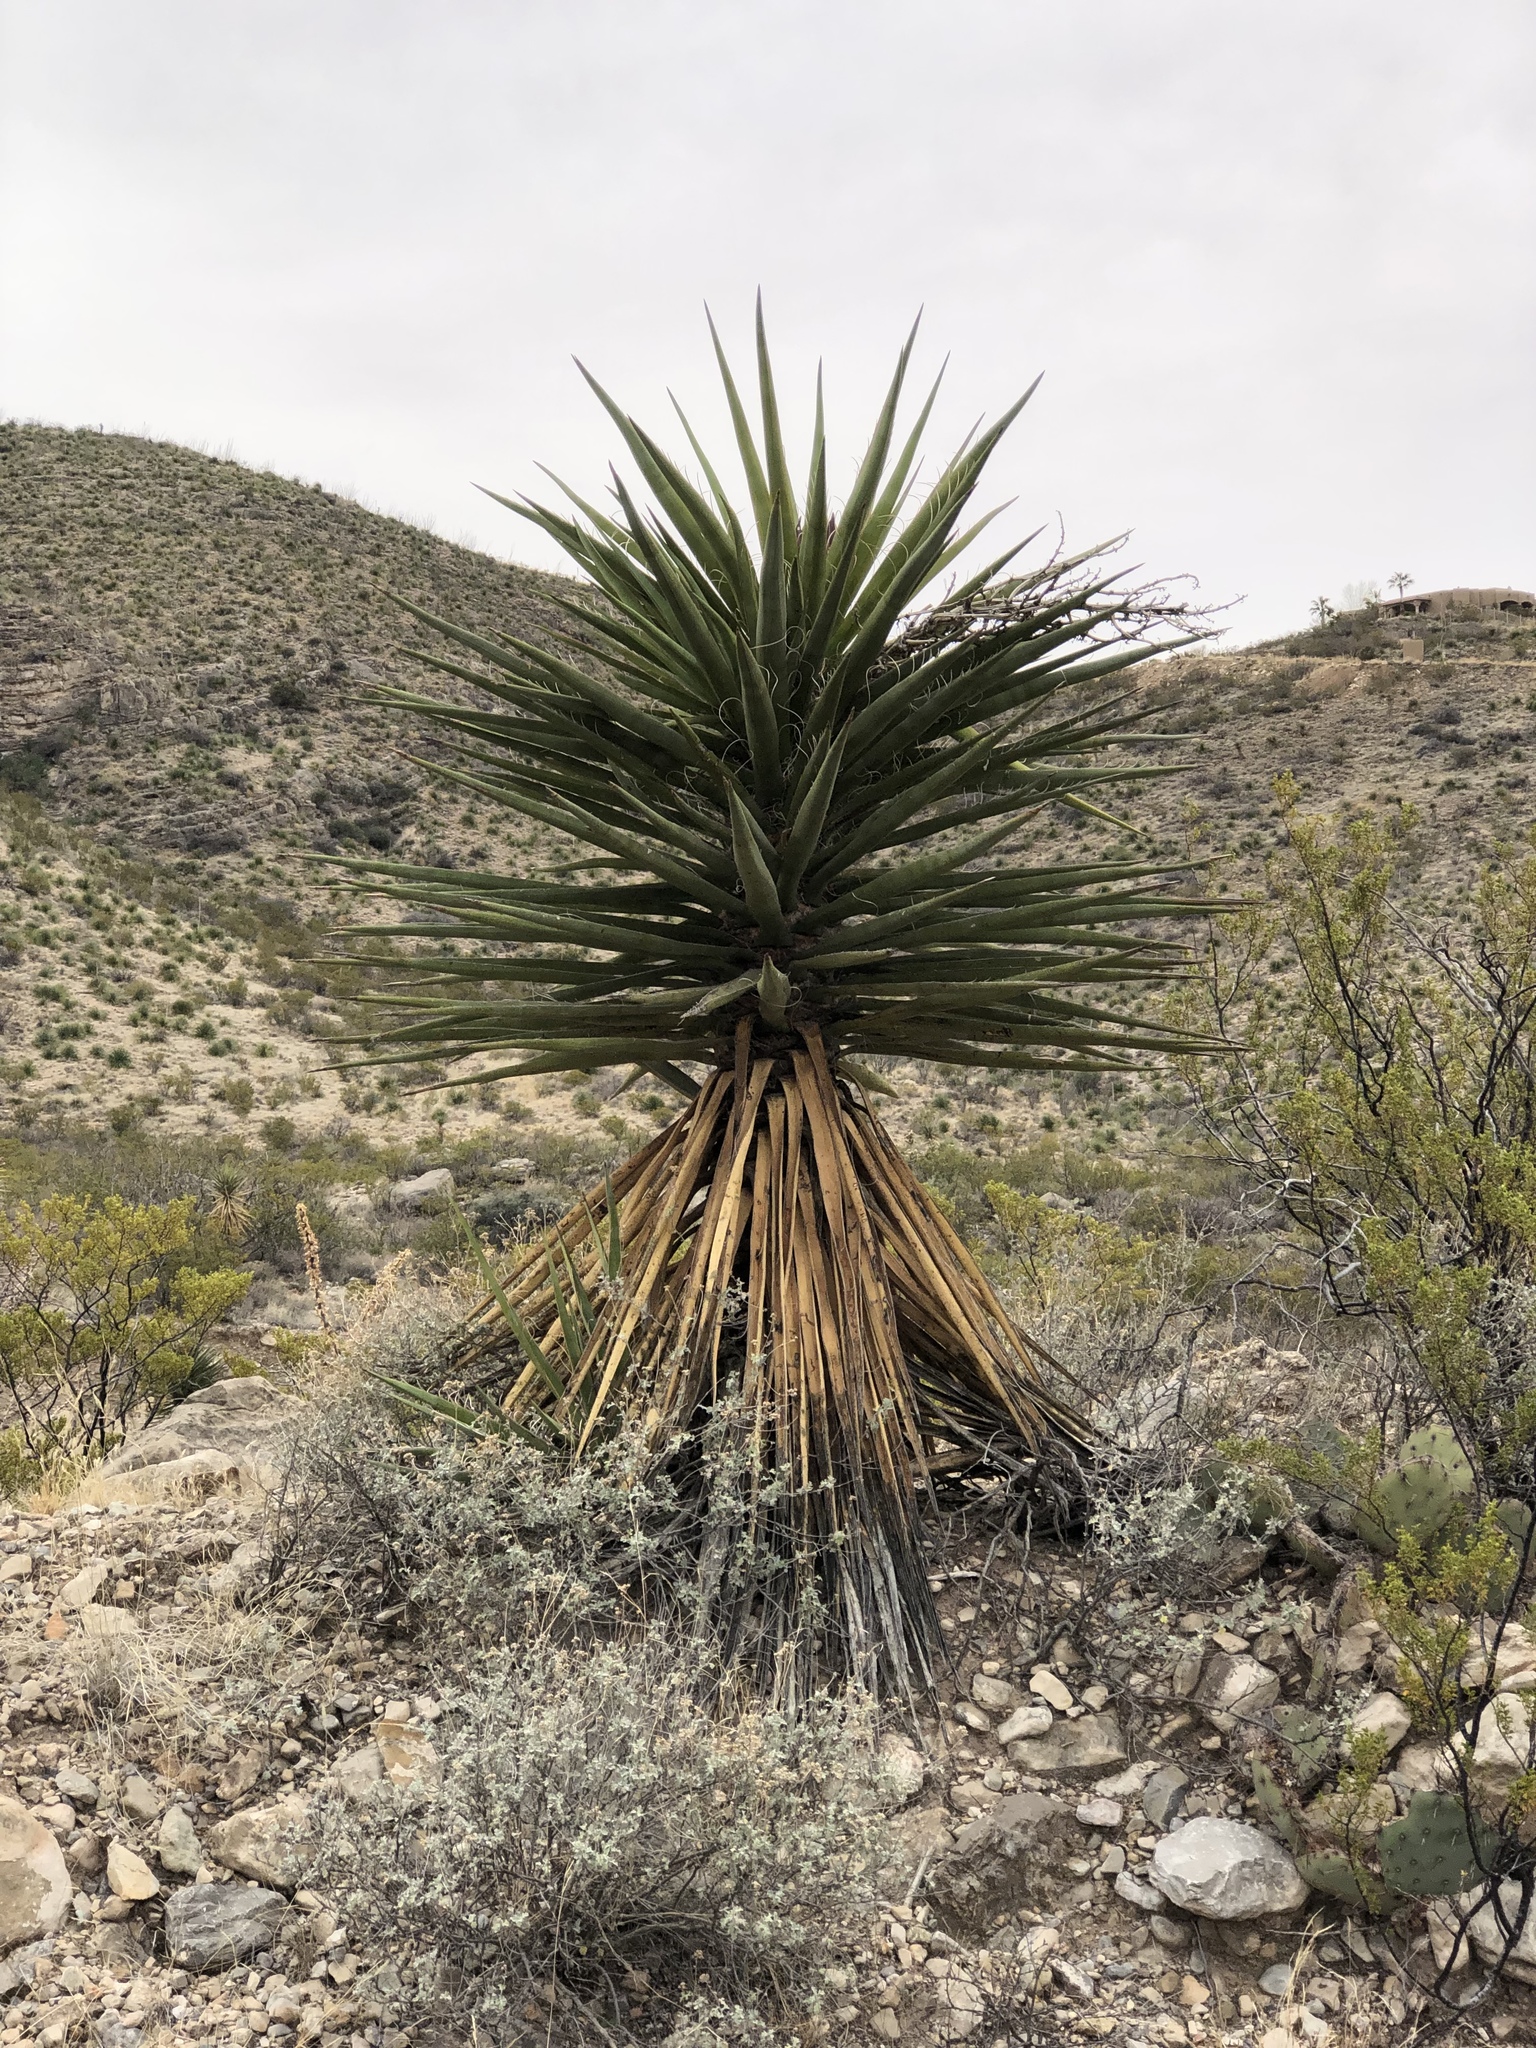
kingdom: Plantae
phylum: Tracheophyta
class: Liliopsida
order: Asparagales
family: Asparagaceae
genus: Yucca
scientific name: Yucca treculiana
